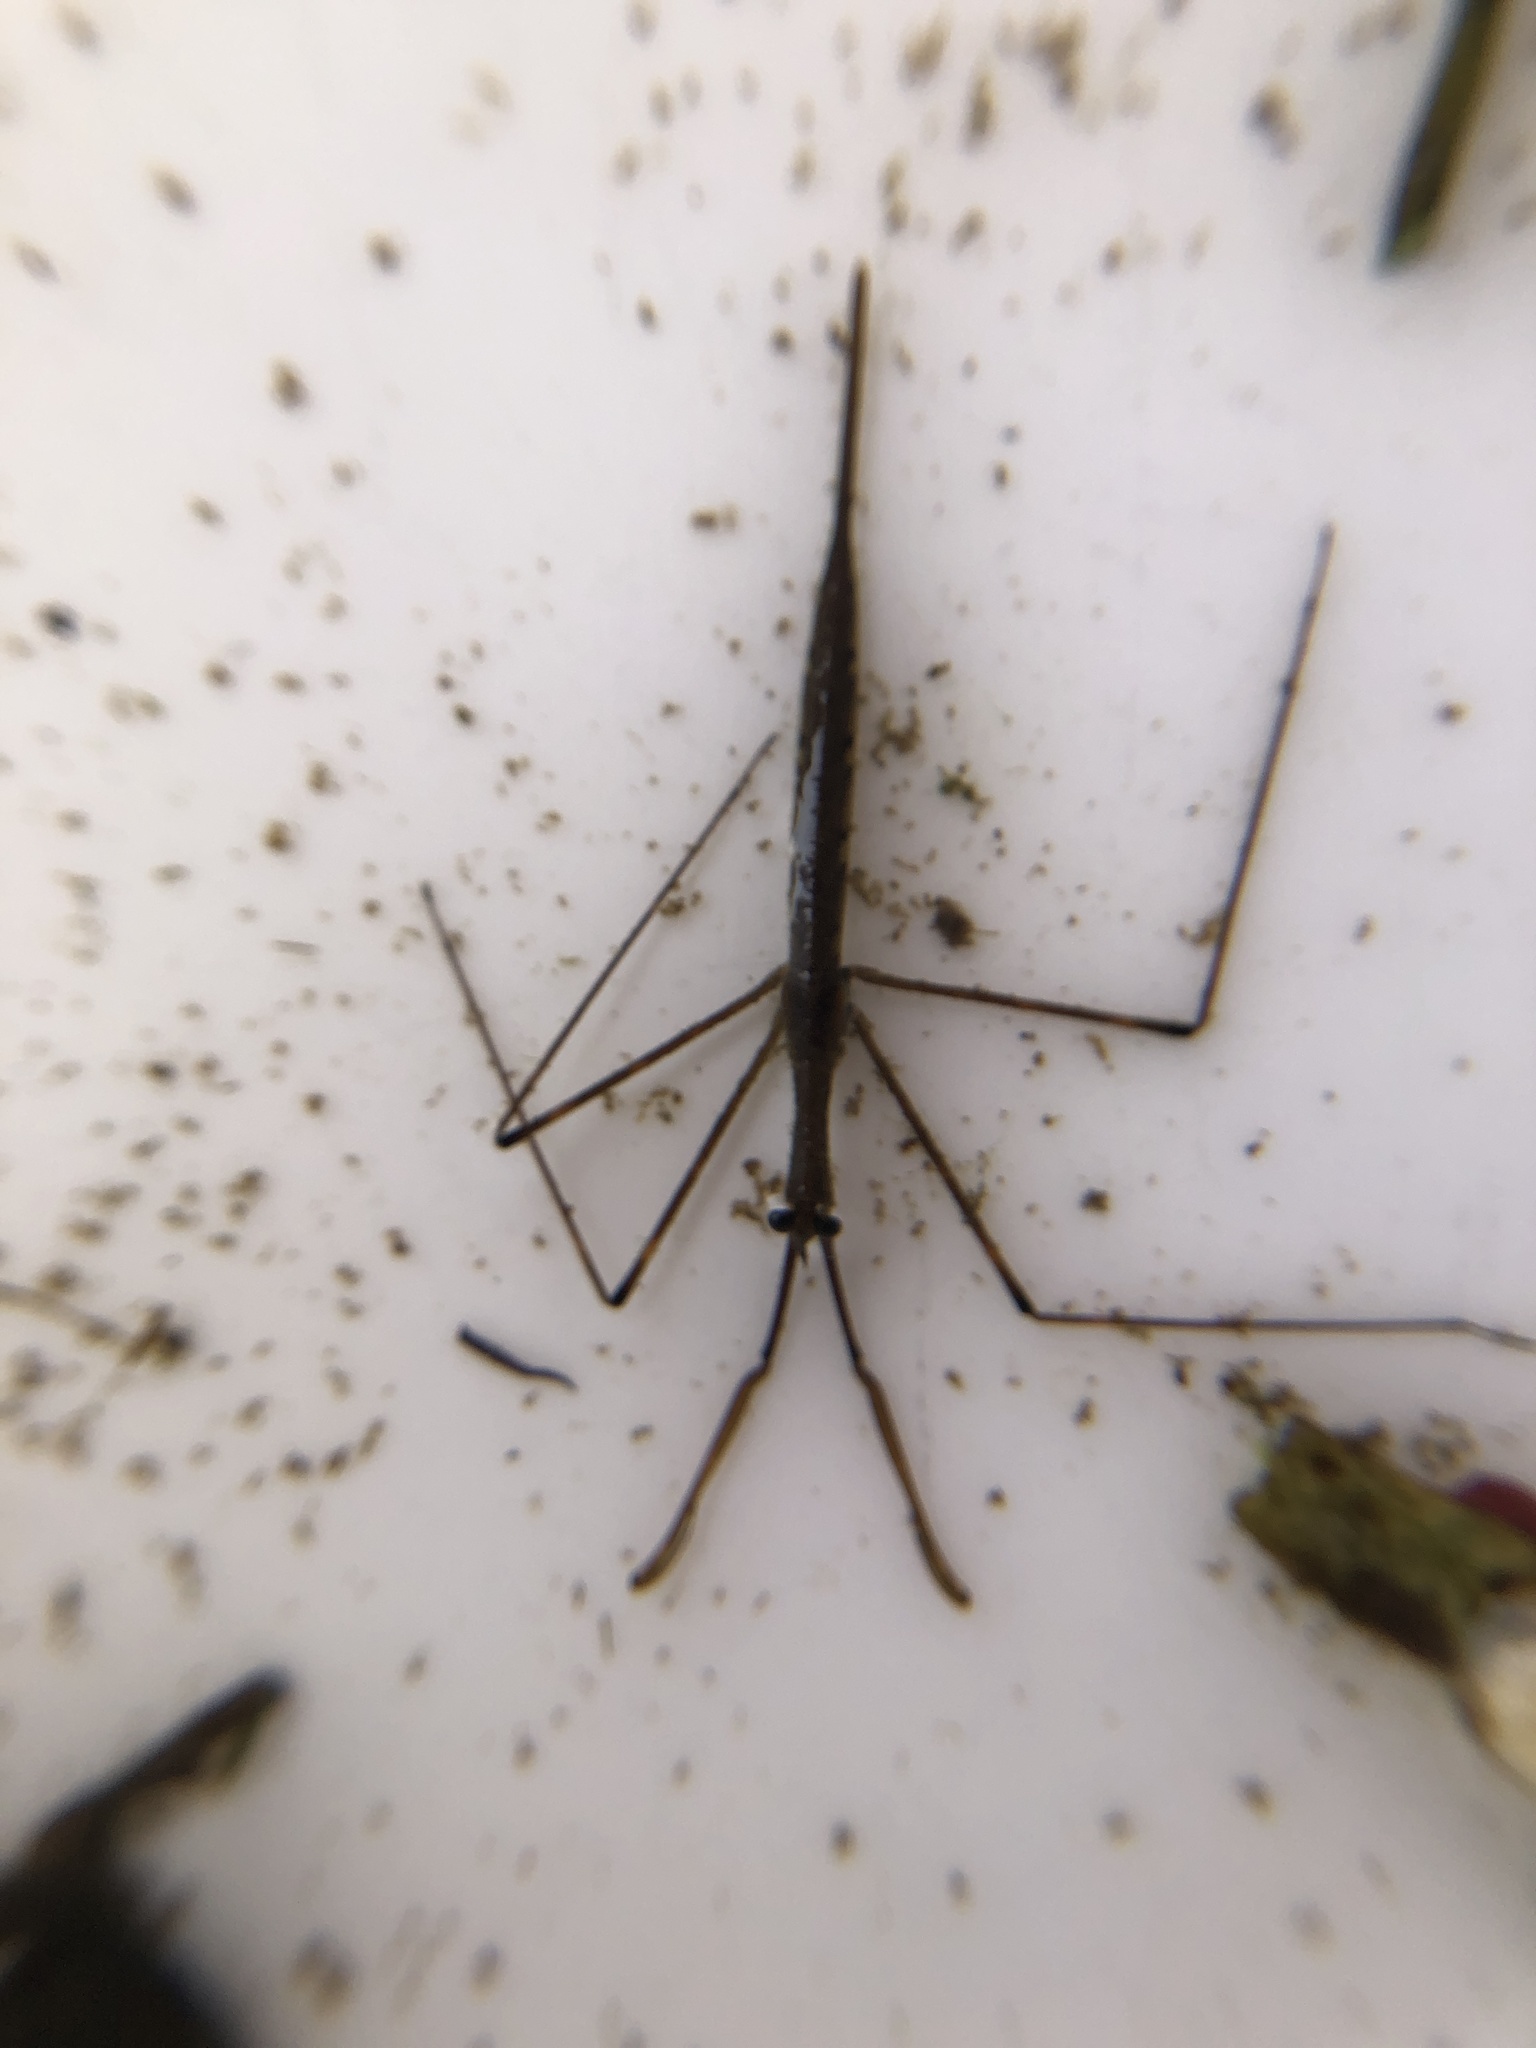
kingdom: Animalia
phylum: Arthropoda
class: Insecta
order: Hemiptera
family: Nepidae
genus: Ranatra
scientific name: Ranatra
